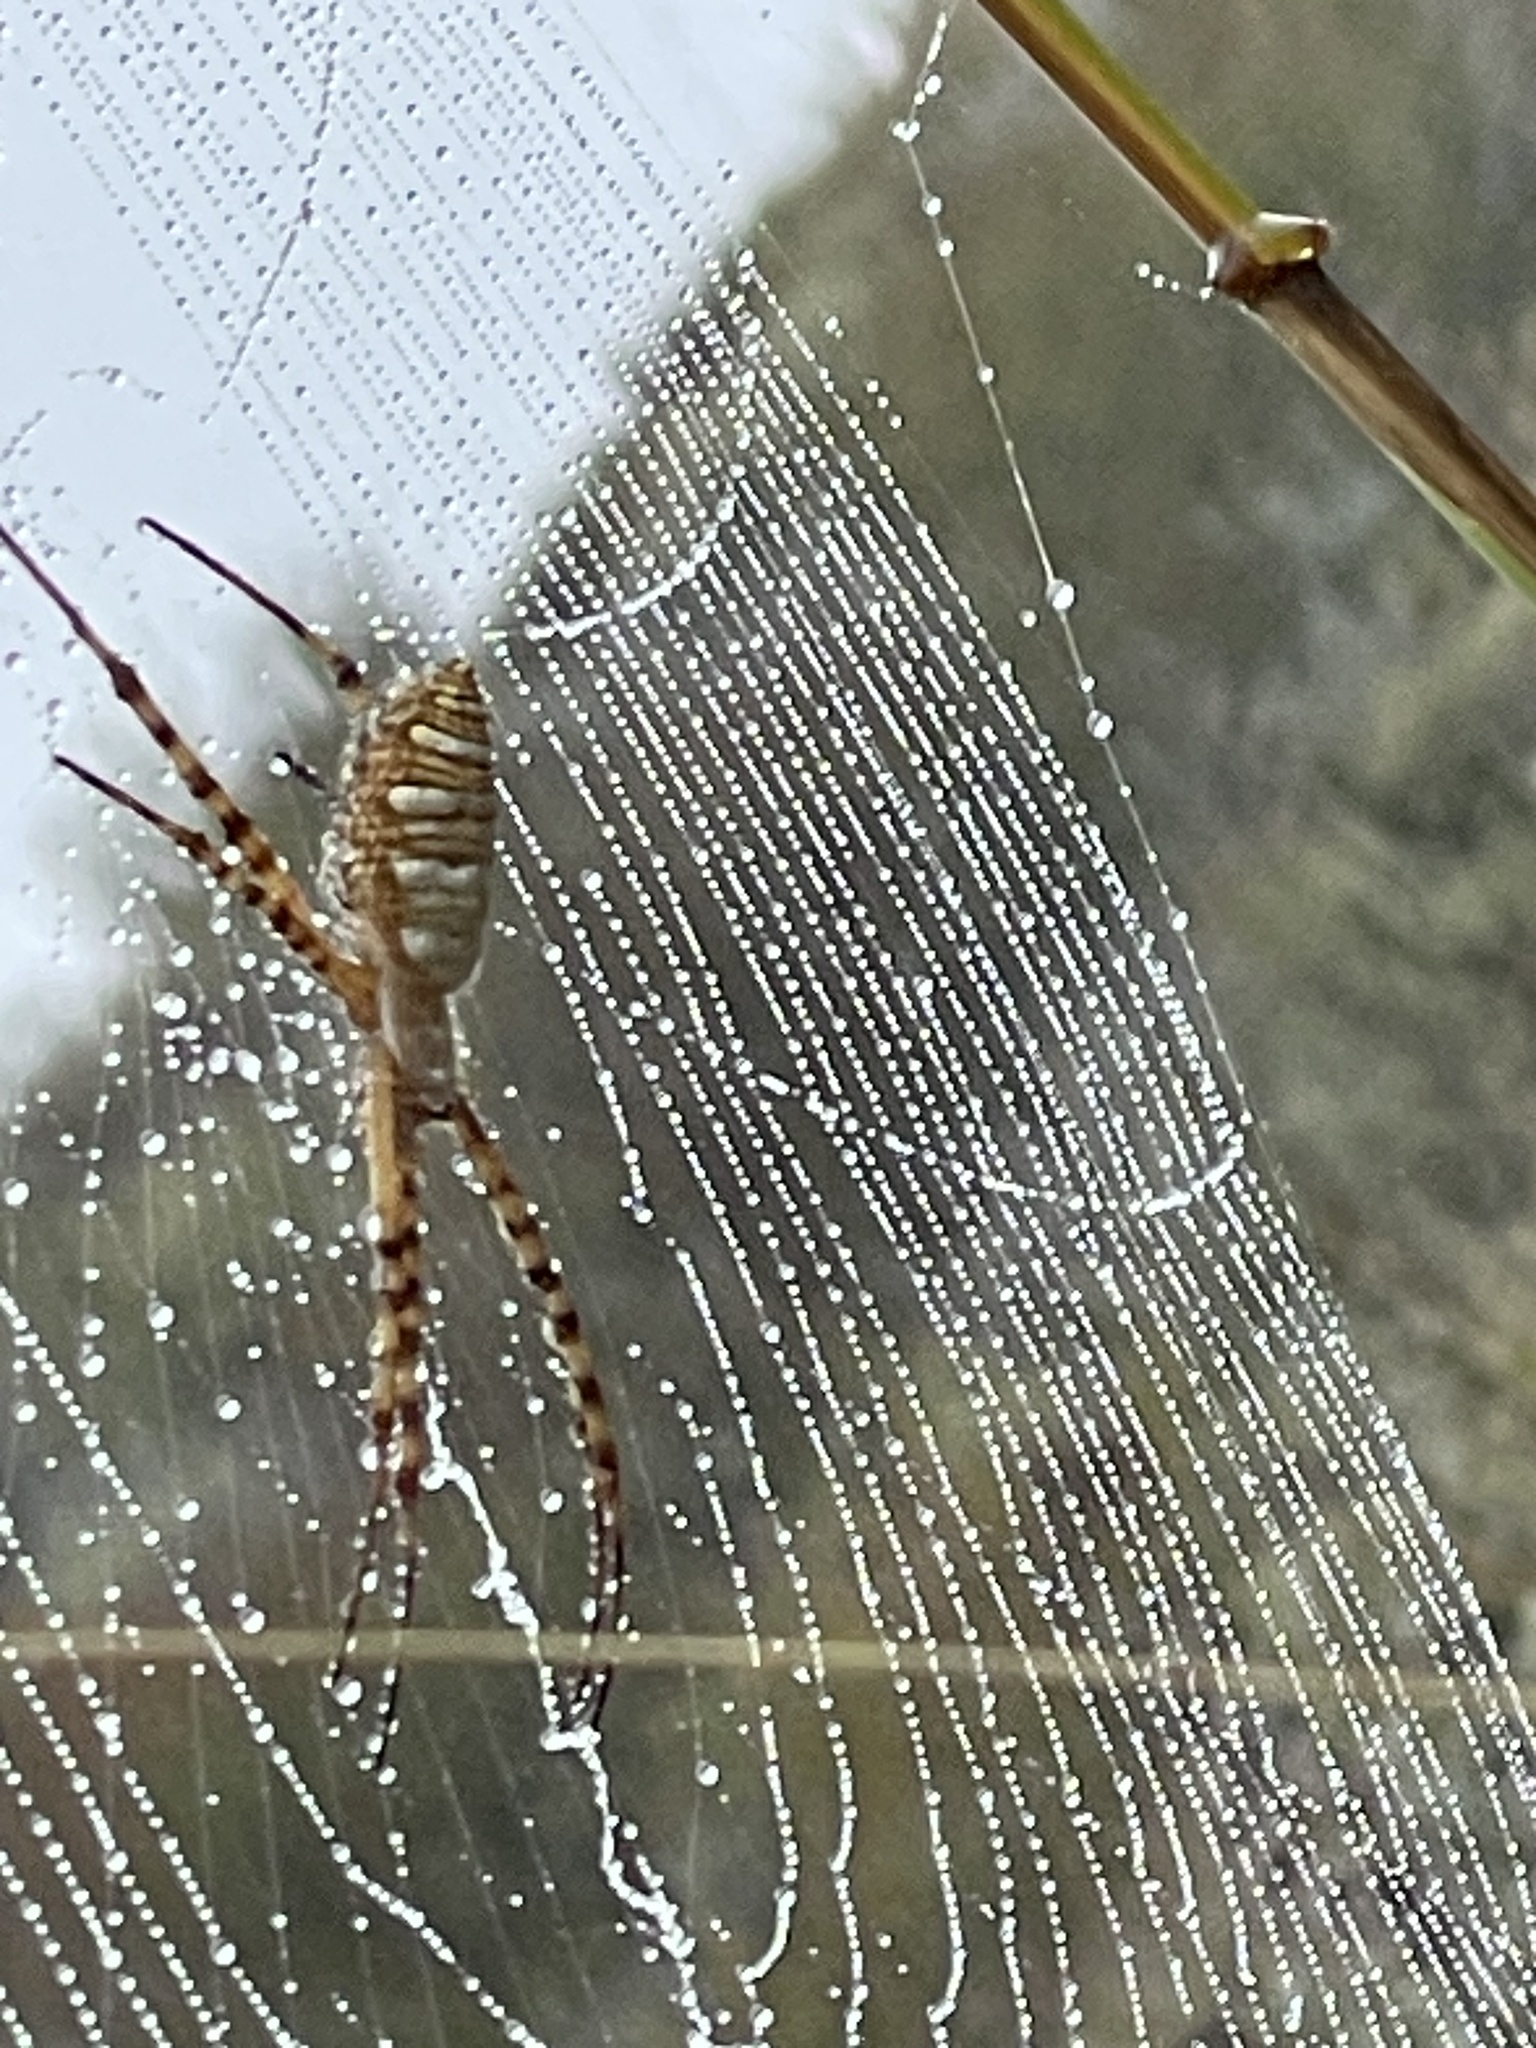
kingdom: Animalia
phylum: Arthropoda
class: Arachnida
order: Araneae
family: Araneidae
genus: Argiope
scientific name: Argiope trifasciata
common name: Banded garden spider
